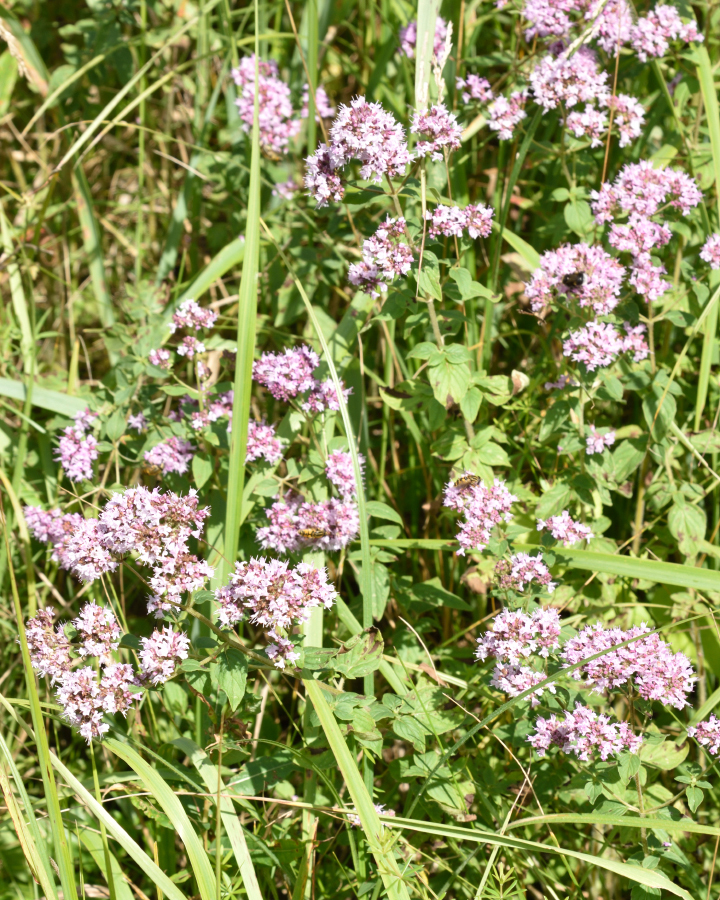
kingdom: Plantae
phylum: Tracheophyta
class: Magnoliopsida
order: Lamiales
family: Lamiaceae
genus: Origanum
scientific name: Origanum vulgare
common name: Wild marjoram
